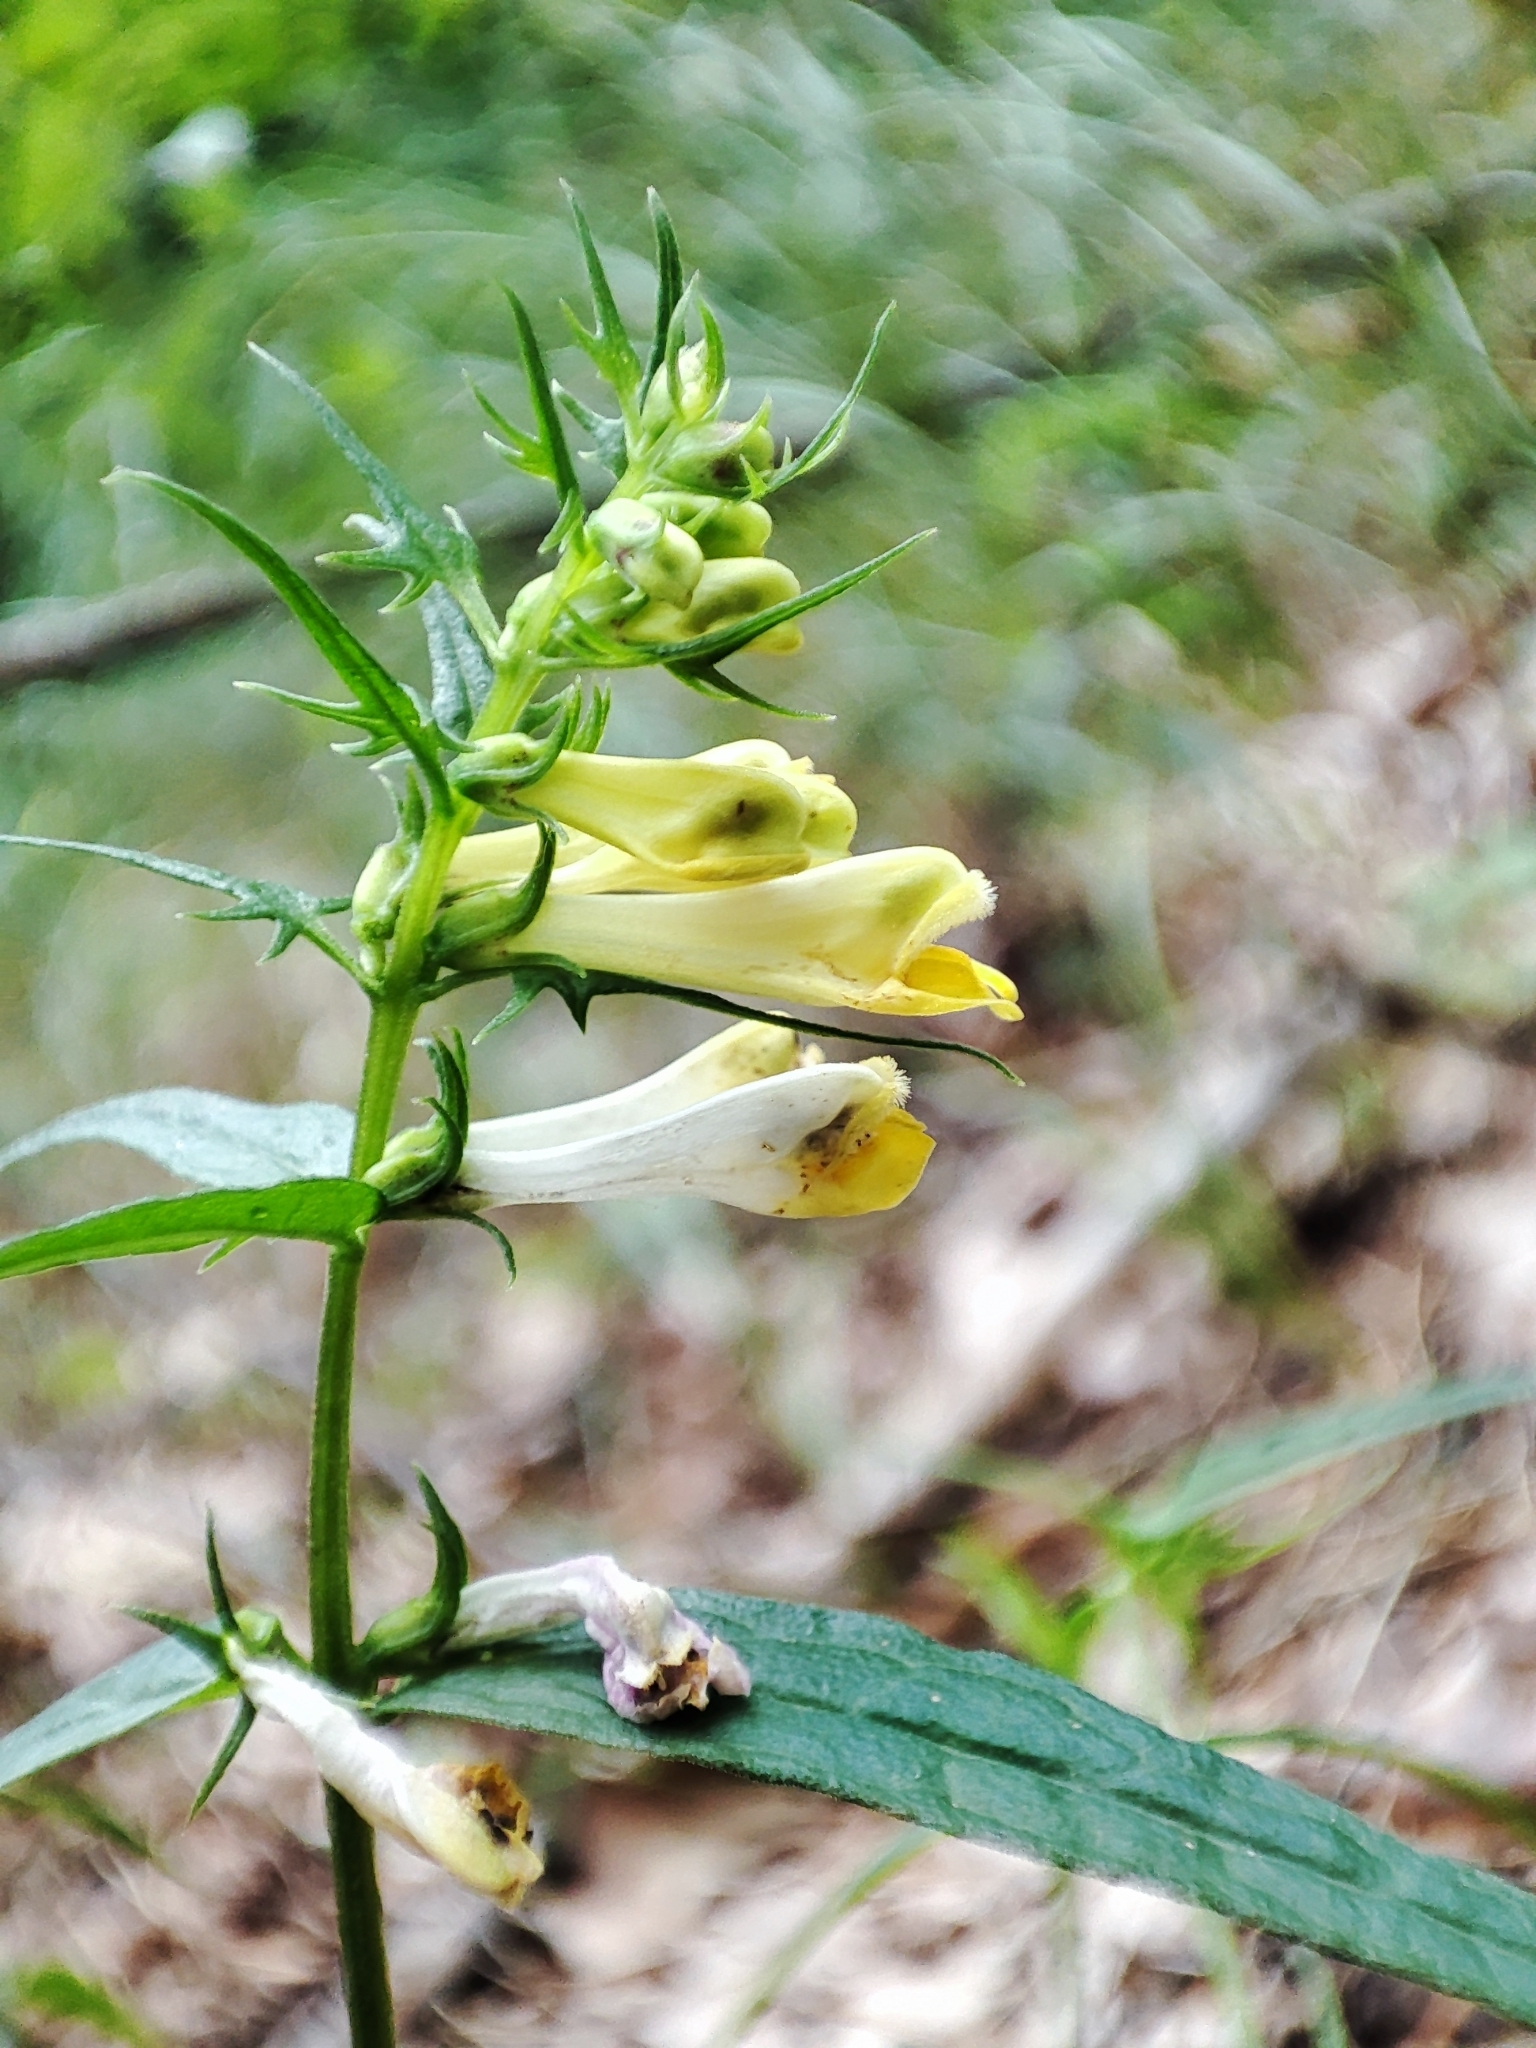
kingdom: Plantae
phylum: Tracheophyta
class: Magnoliopsida
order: Lamiales
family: Orobanchaceae
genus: Melampyrum
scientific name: Melampyrum pratense
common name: Common cow-wheat
